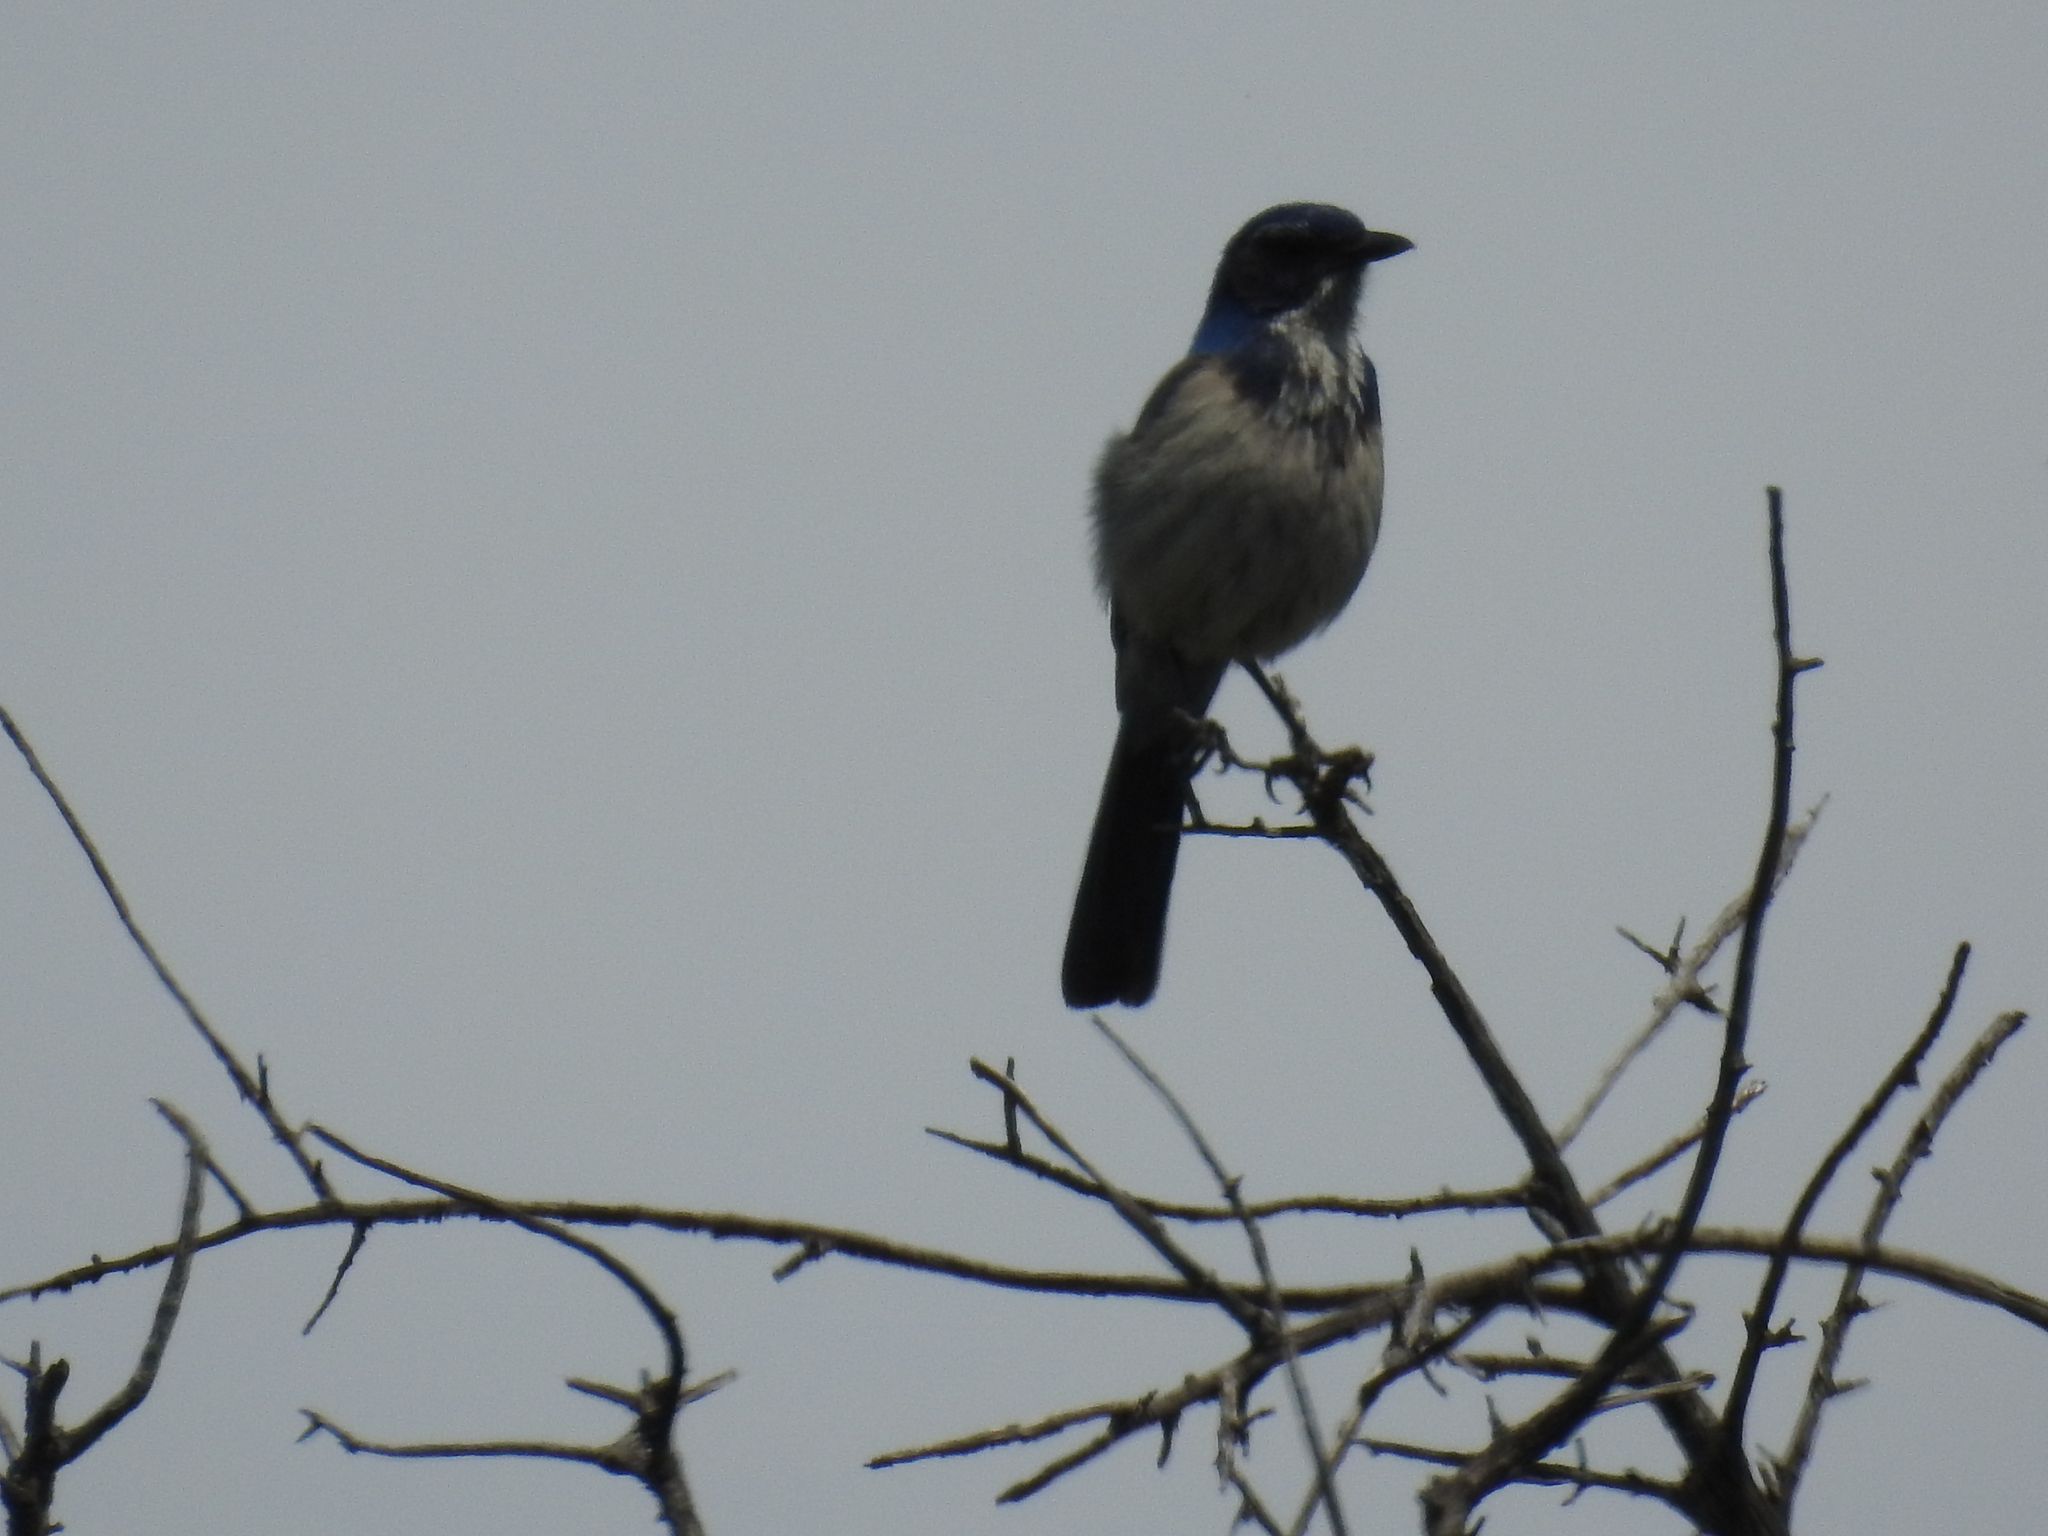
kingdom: Animalia
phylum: Chordata
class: Aves
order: Passeriformes
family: Corvidae
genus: Aphelocoma
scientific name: Aphelocoma californica
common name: California scrub-jay
